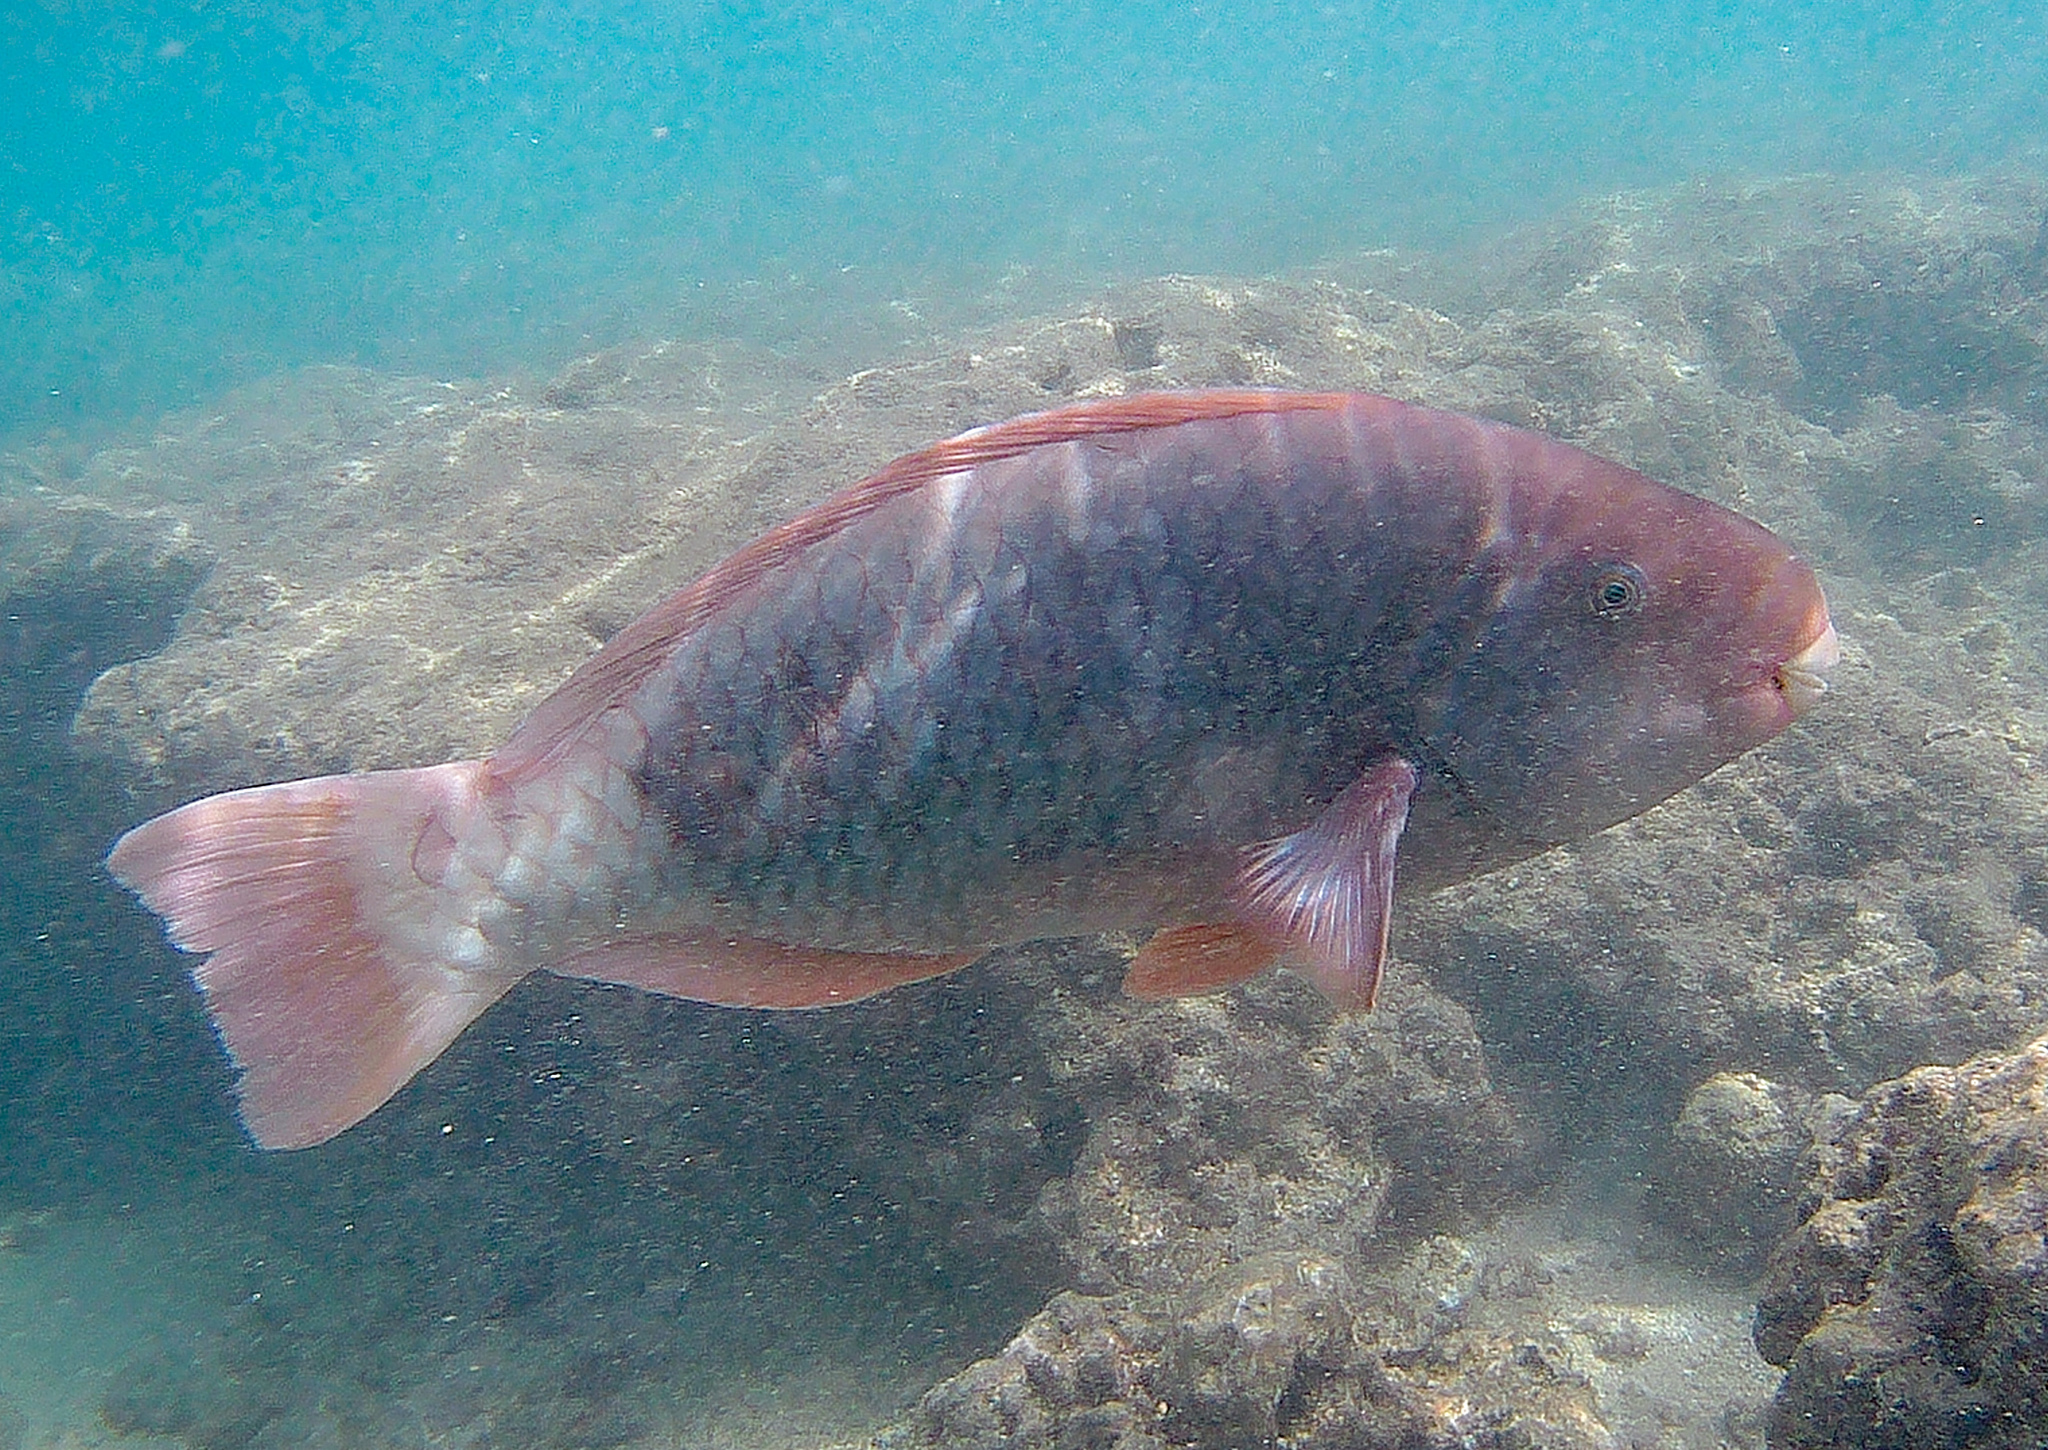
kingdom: Animalia
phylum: Chordata
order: Perciformes
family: Scaridae
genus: Chlorurus
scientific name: Chlorurus perspicillatus
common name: Spectacled parrotfish
